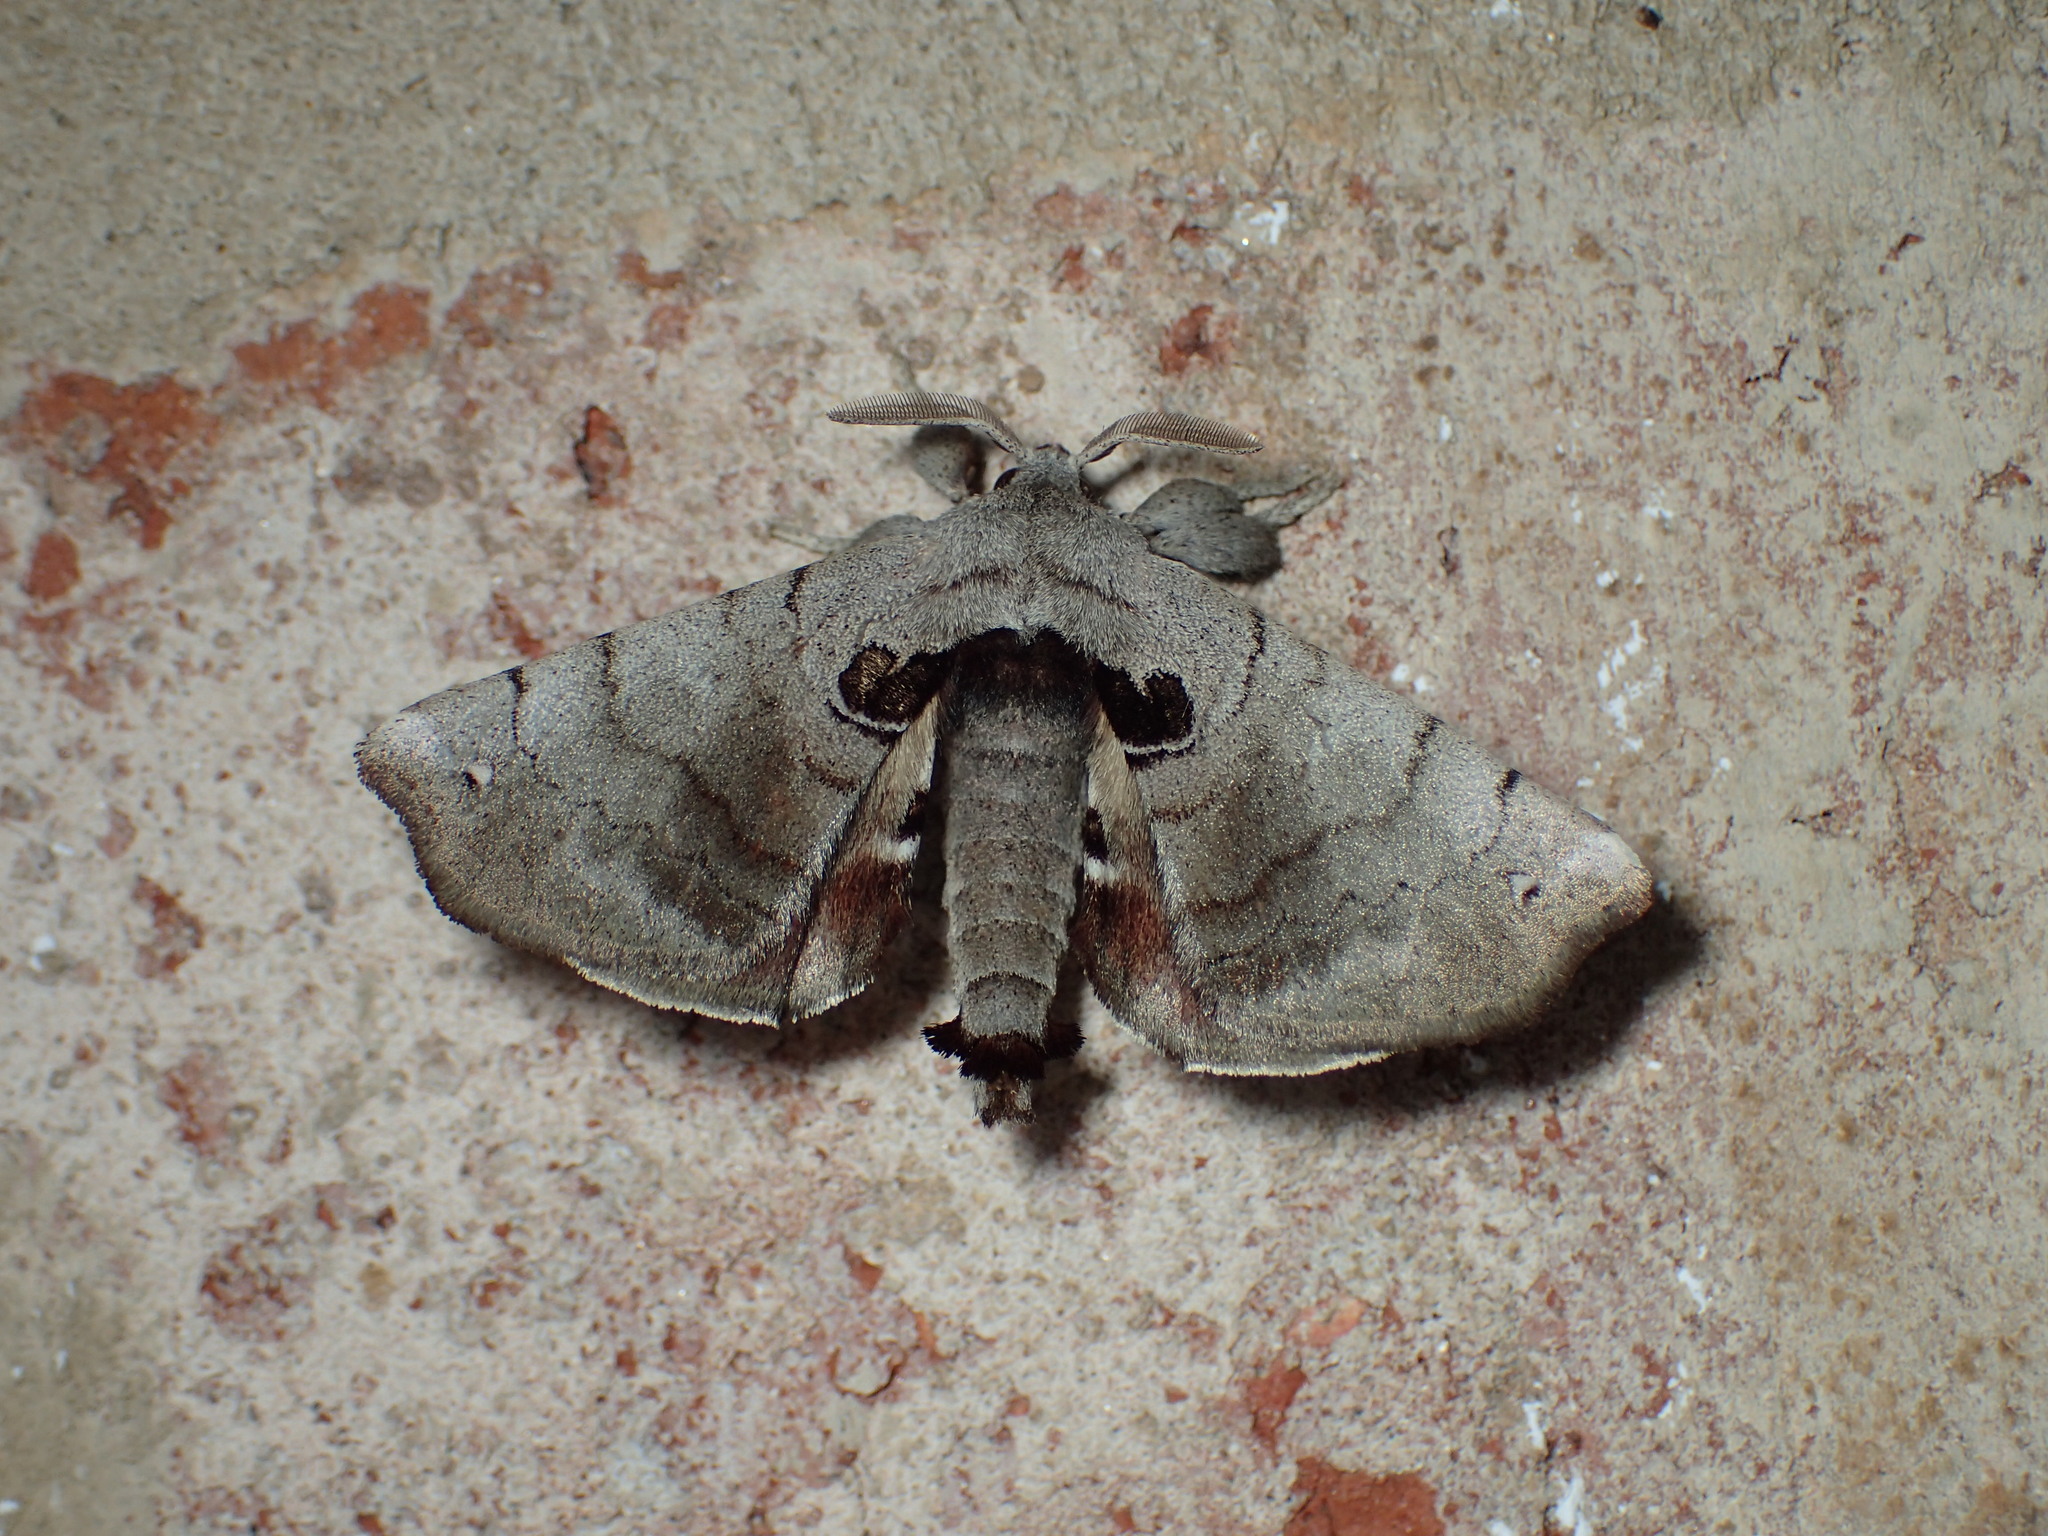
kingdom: Animalia
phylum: Arthropoda
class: Insecta
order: Lepidoptera
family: Apatelodidae
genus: Hygrochroa
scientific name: Hygrochroa Apatelodes torrefacta
